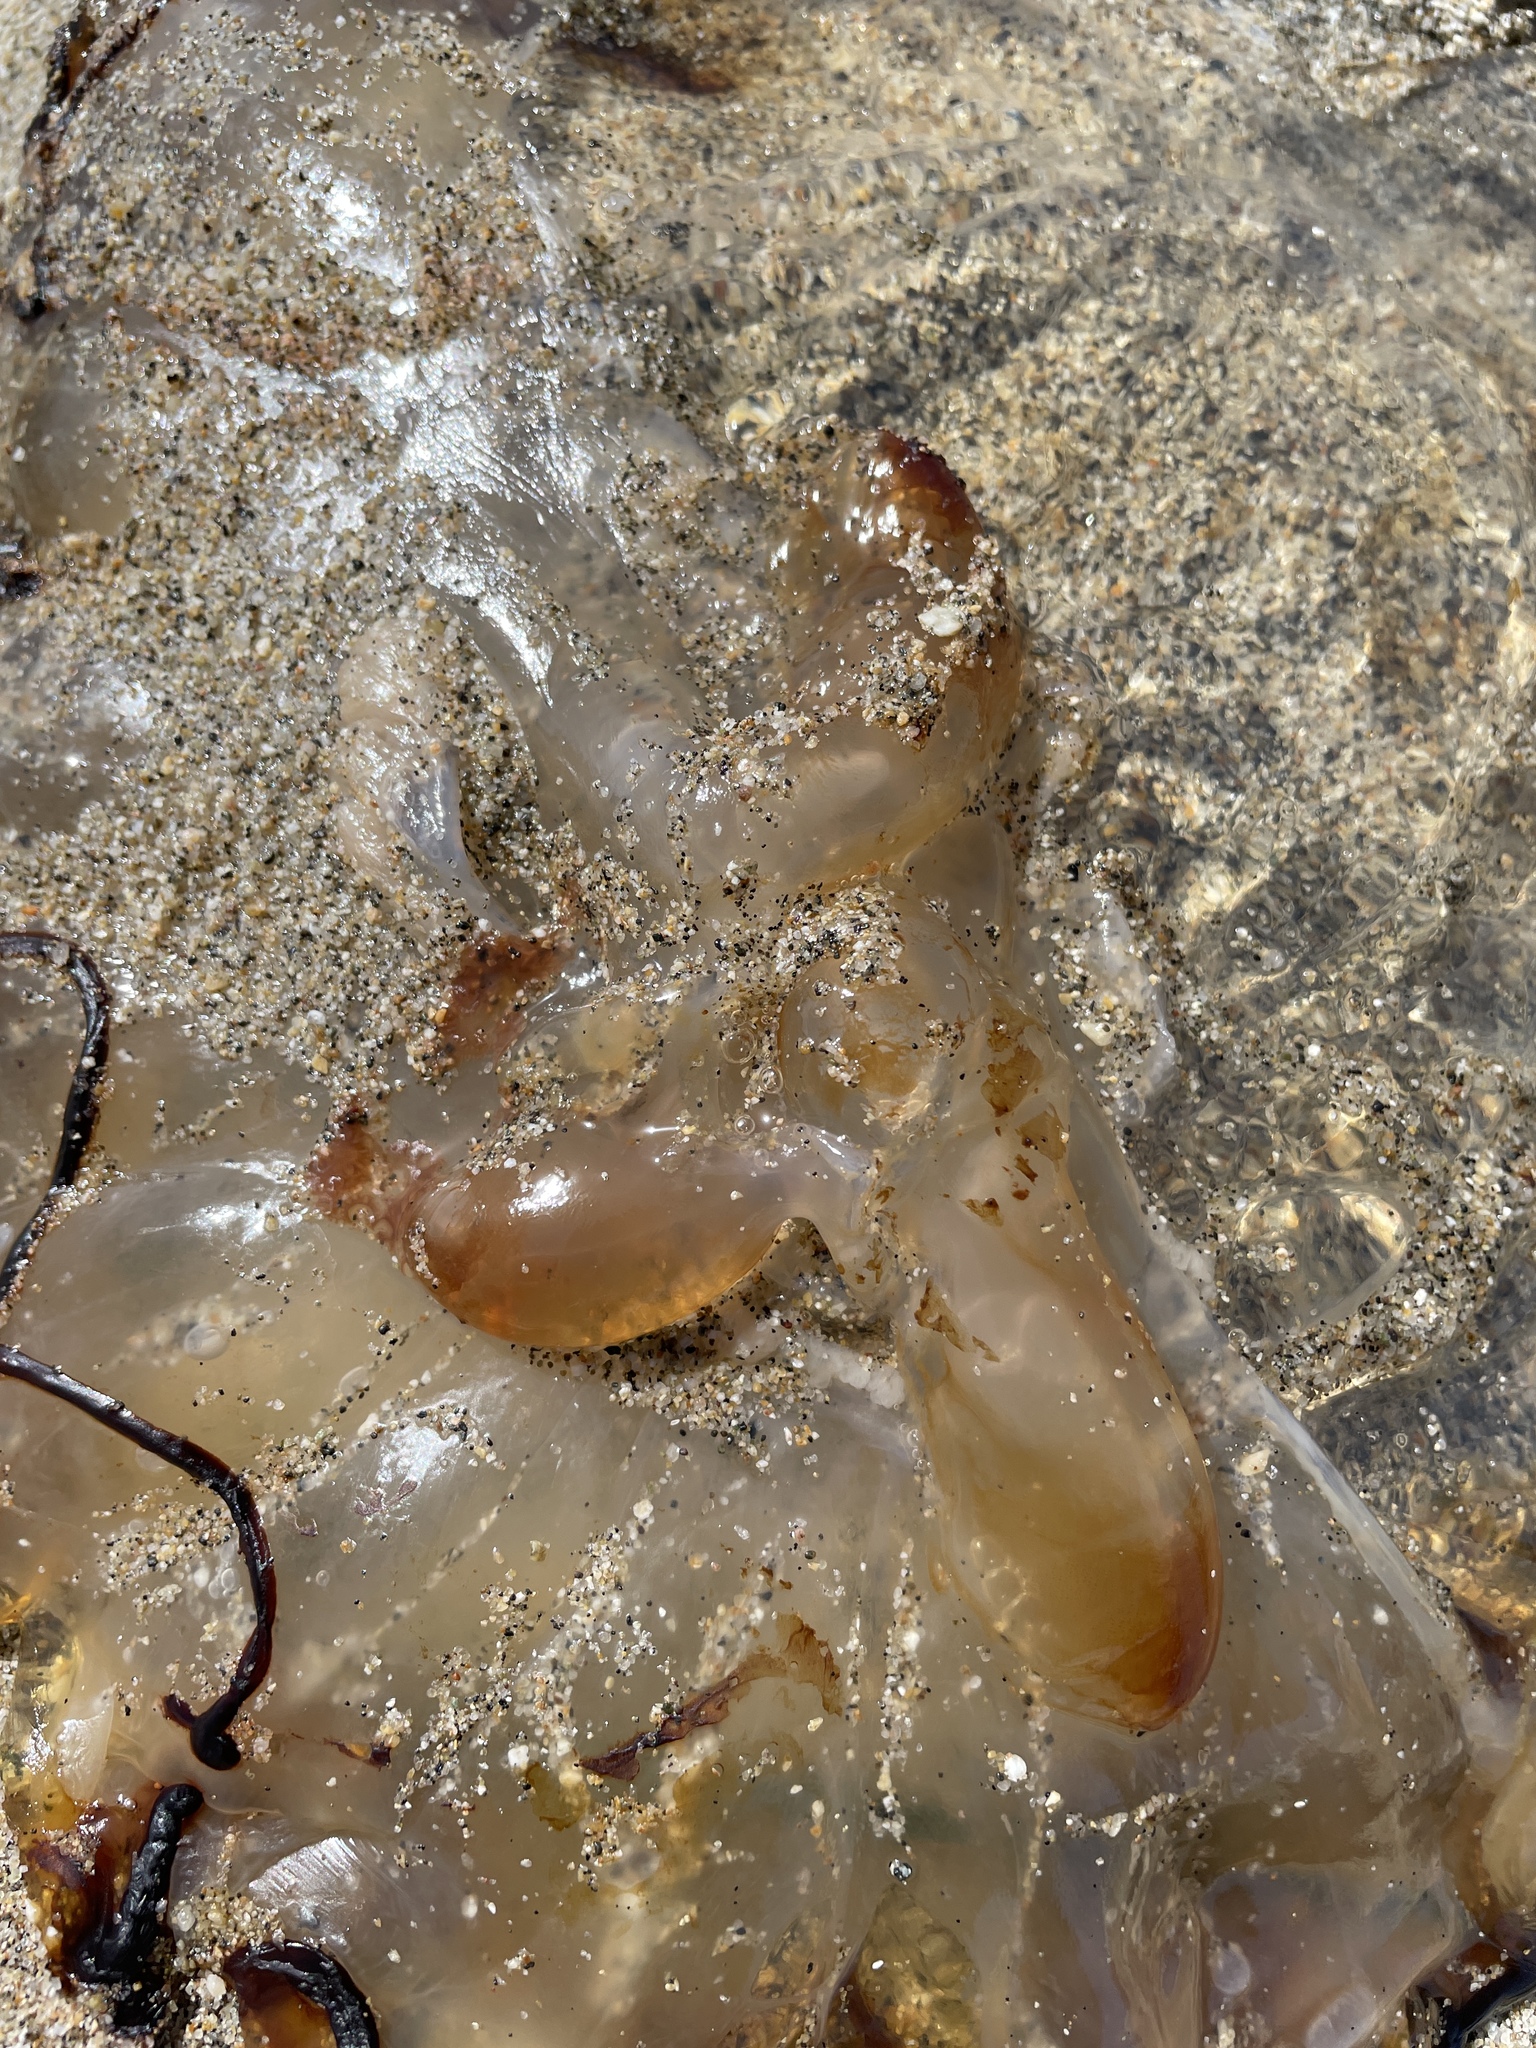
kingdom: Animalia
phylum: Cnidaria
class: Scyphozoa
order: Semaeostomeae
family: Pelagiidae
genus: Chrysaora
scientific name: Chrysaora fuscescens
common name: Sea nettle
